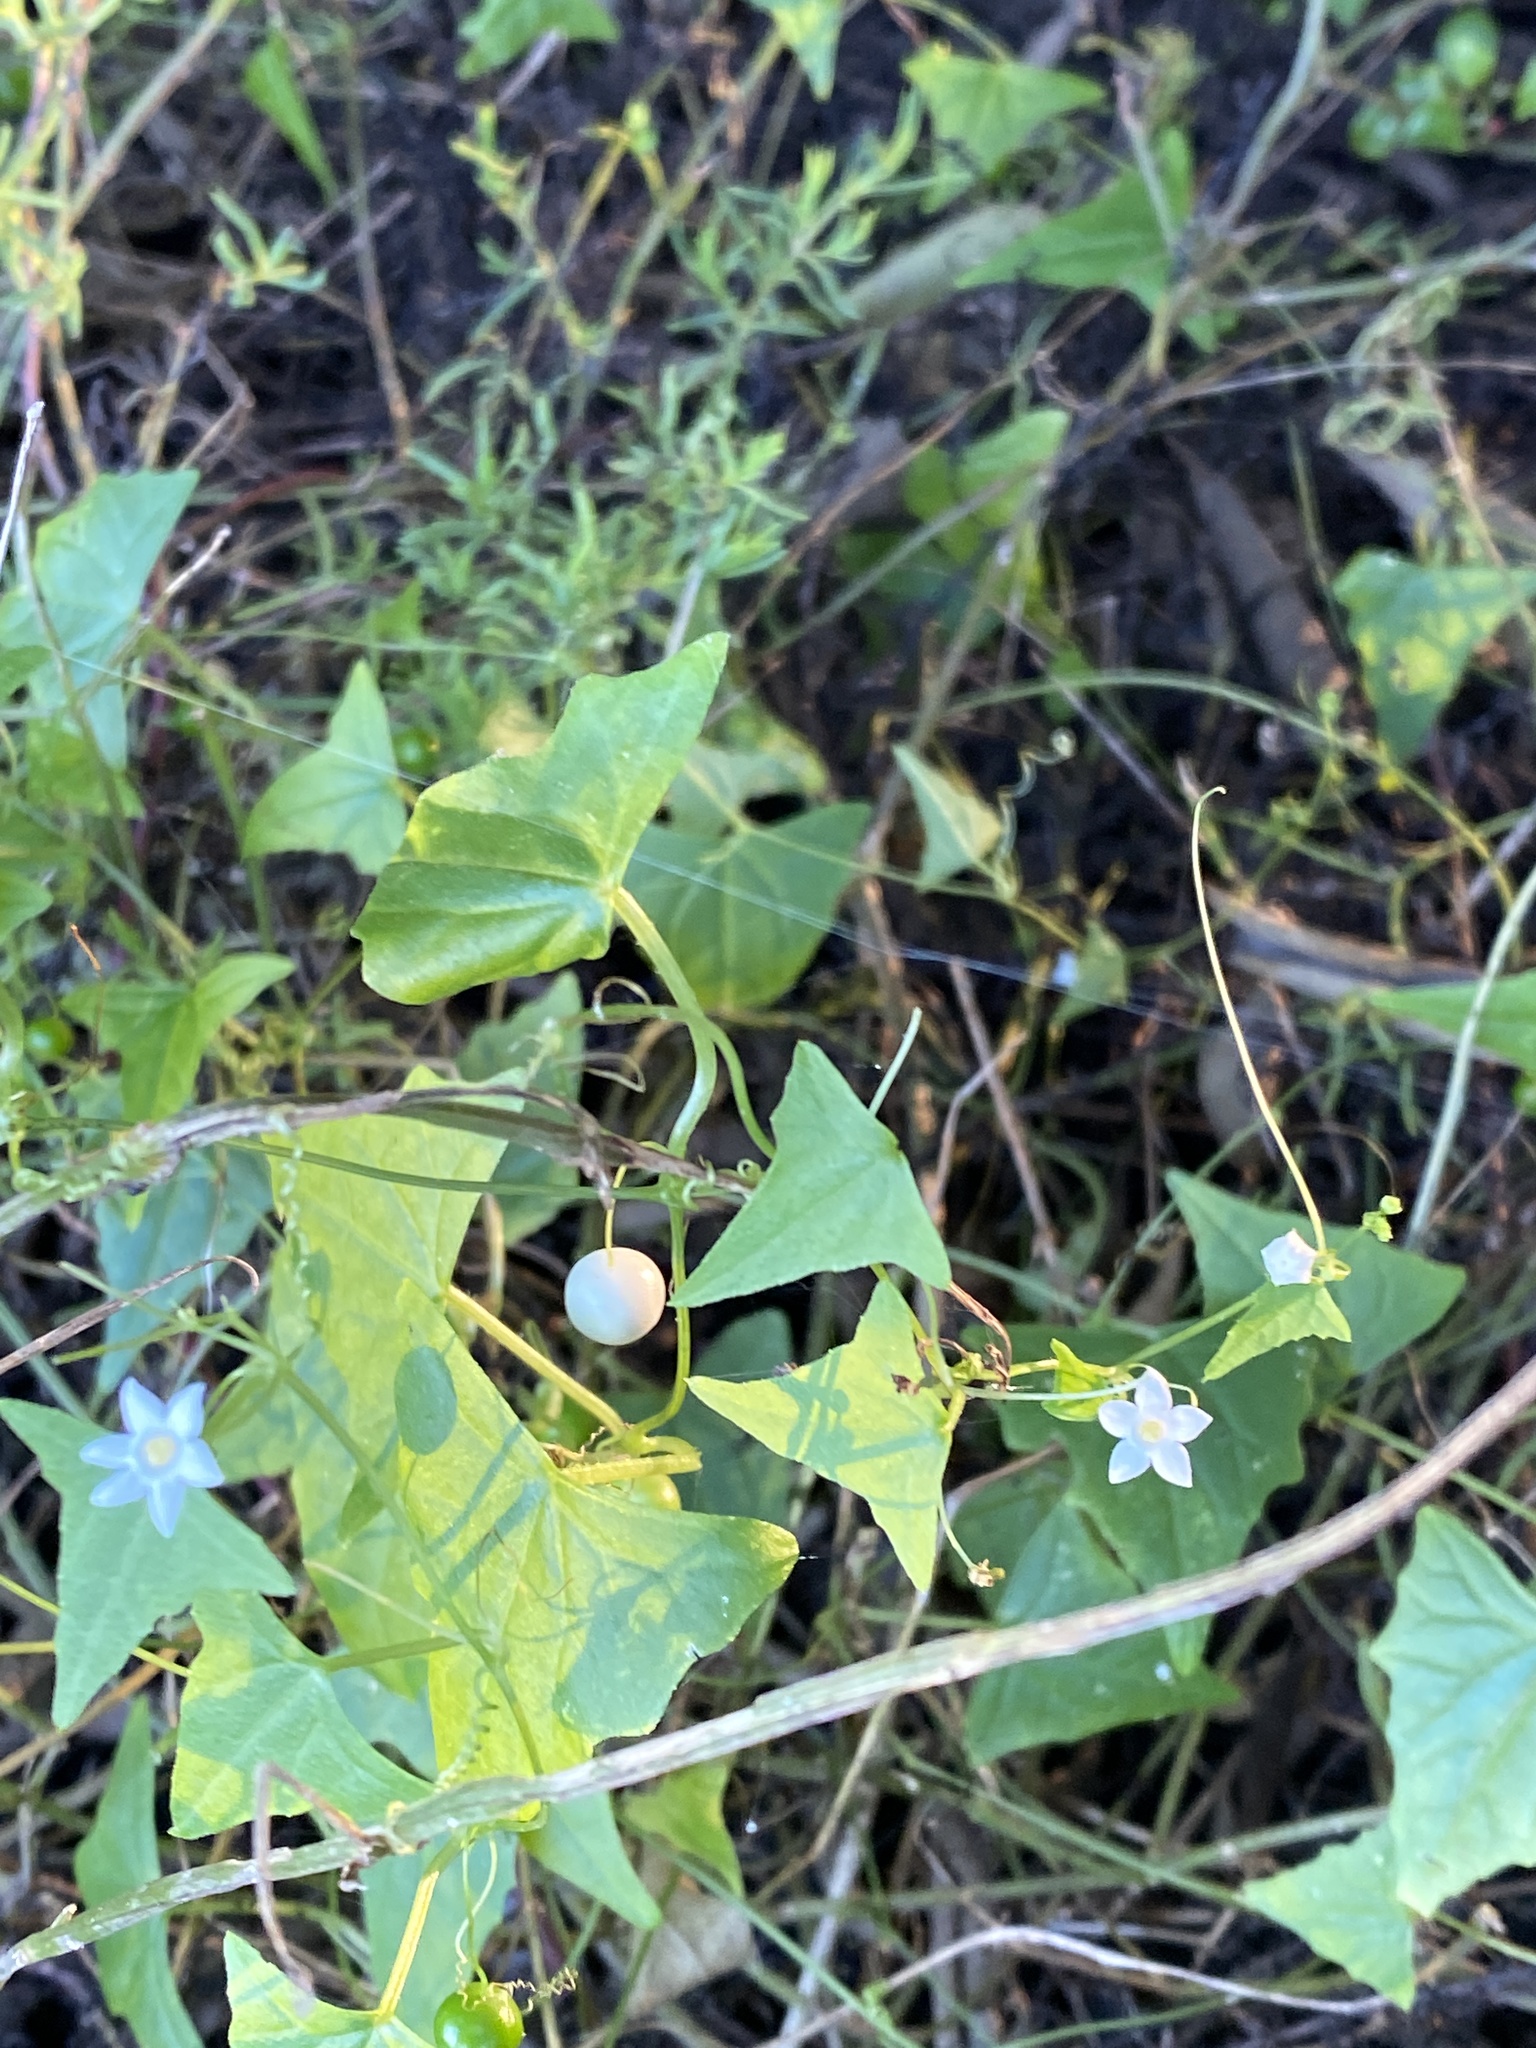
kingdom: Plantae
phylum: Tracheophyta
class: Magnoliopsida
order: Cucurbitales
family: Cucurbitaceae
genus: Zehneria
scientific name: Zehneria cunninghamii
